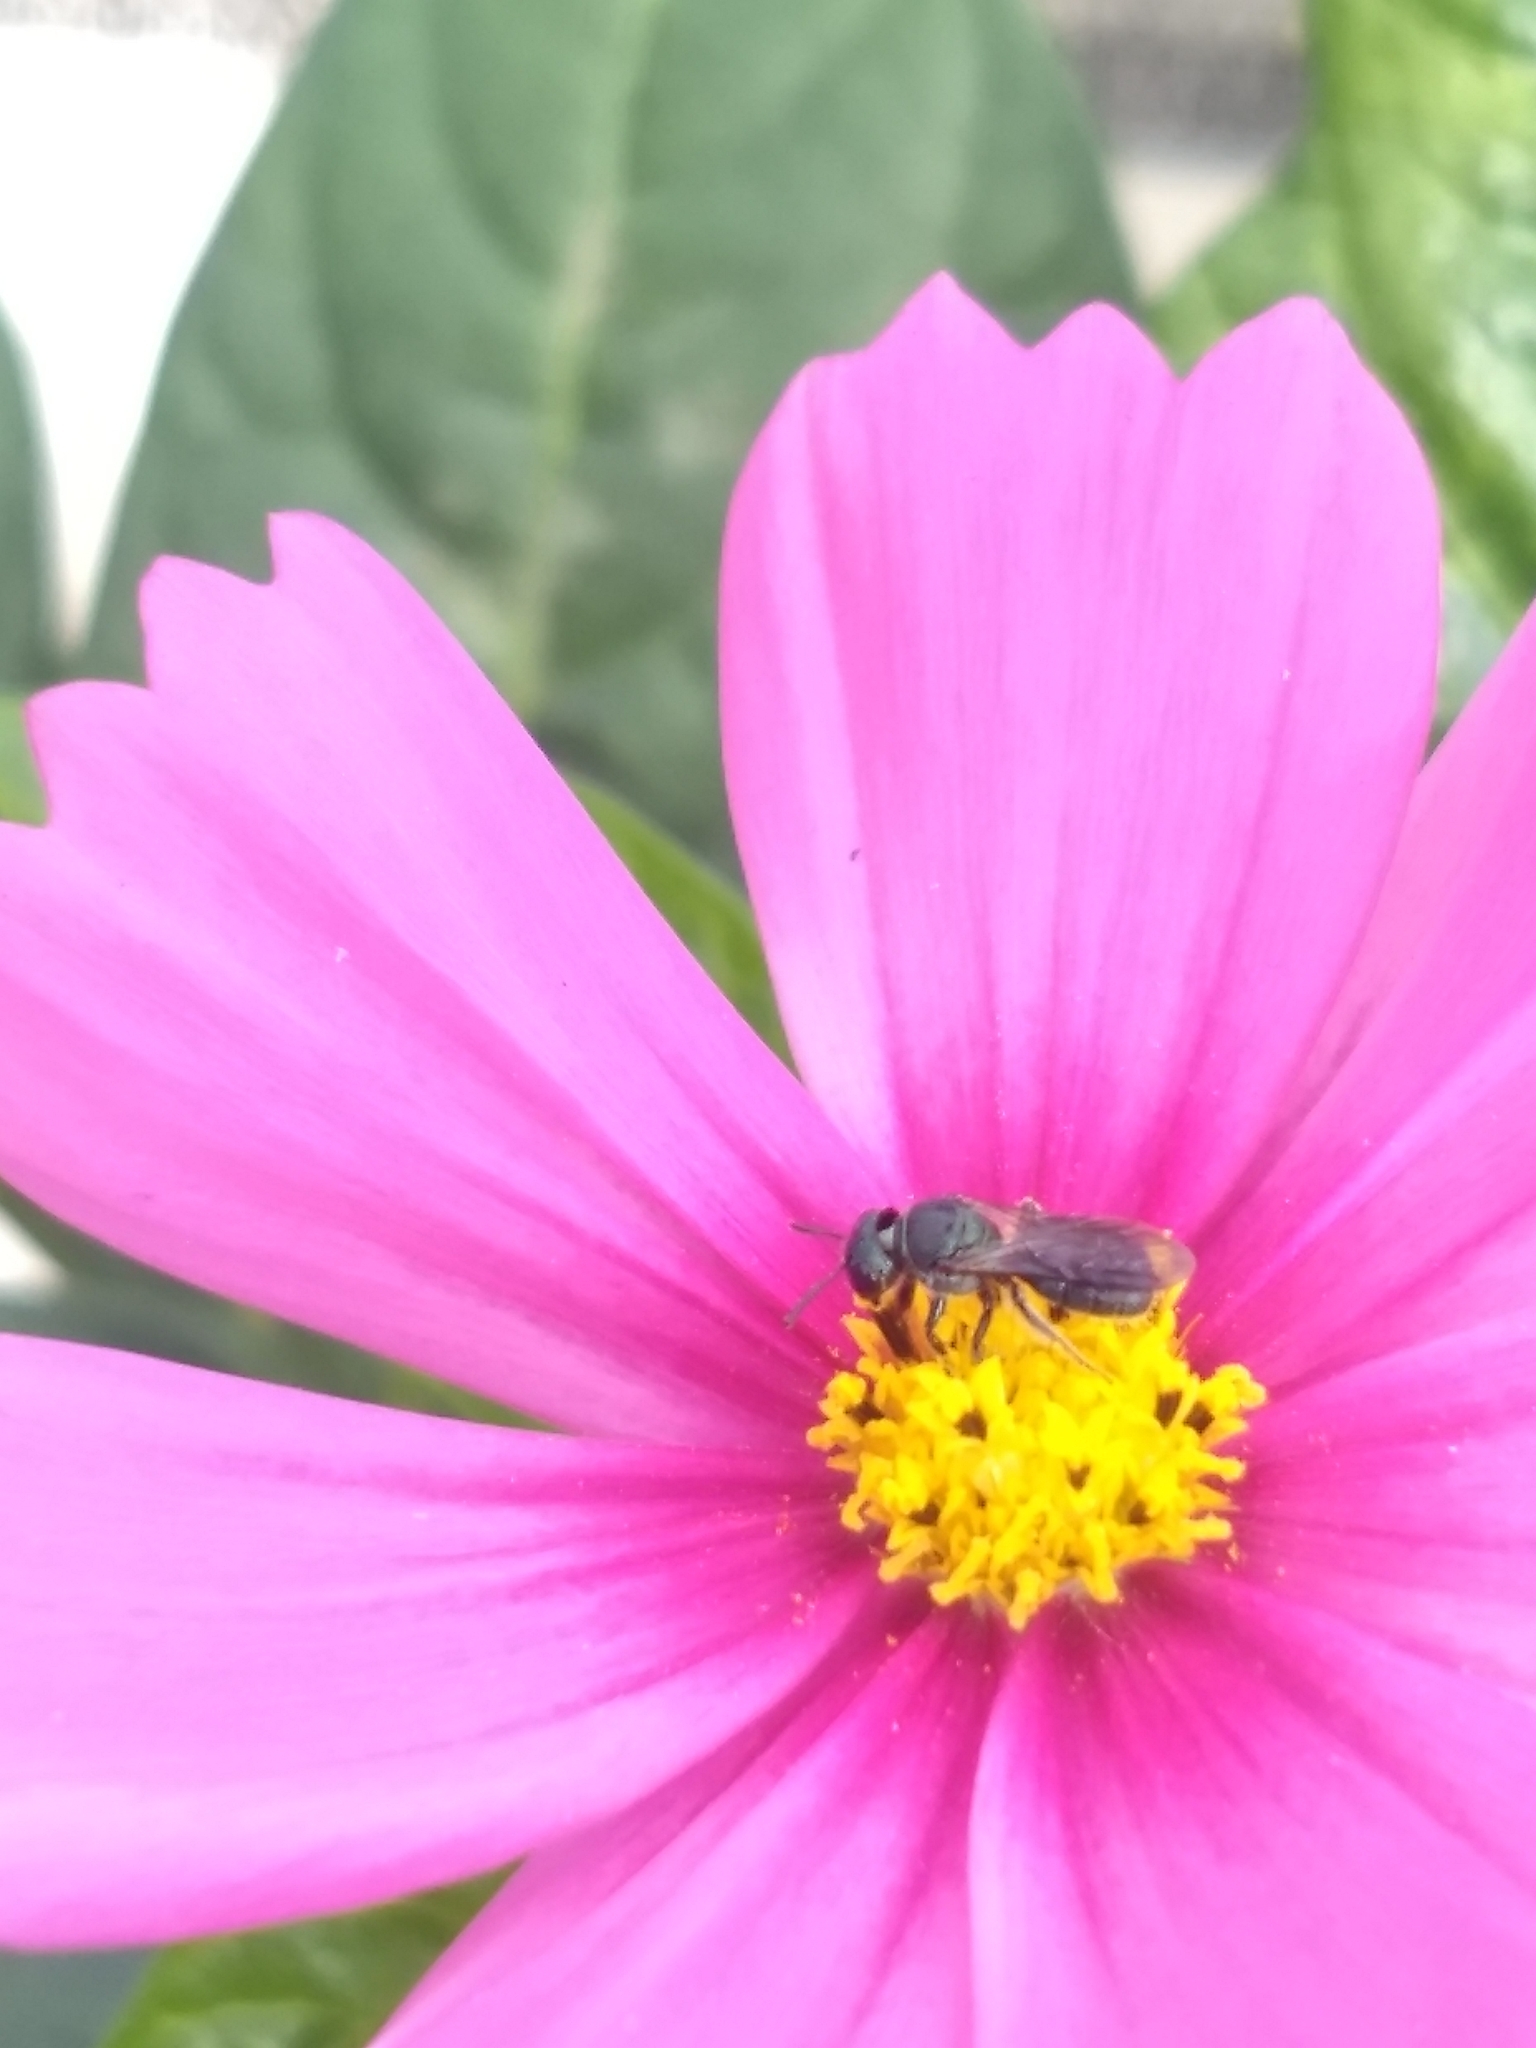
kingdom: Animalia
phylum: Arthropoda
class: Insecta
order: Hymenoptera
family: Apidae
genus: Ceratina
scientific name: Ceratina
